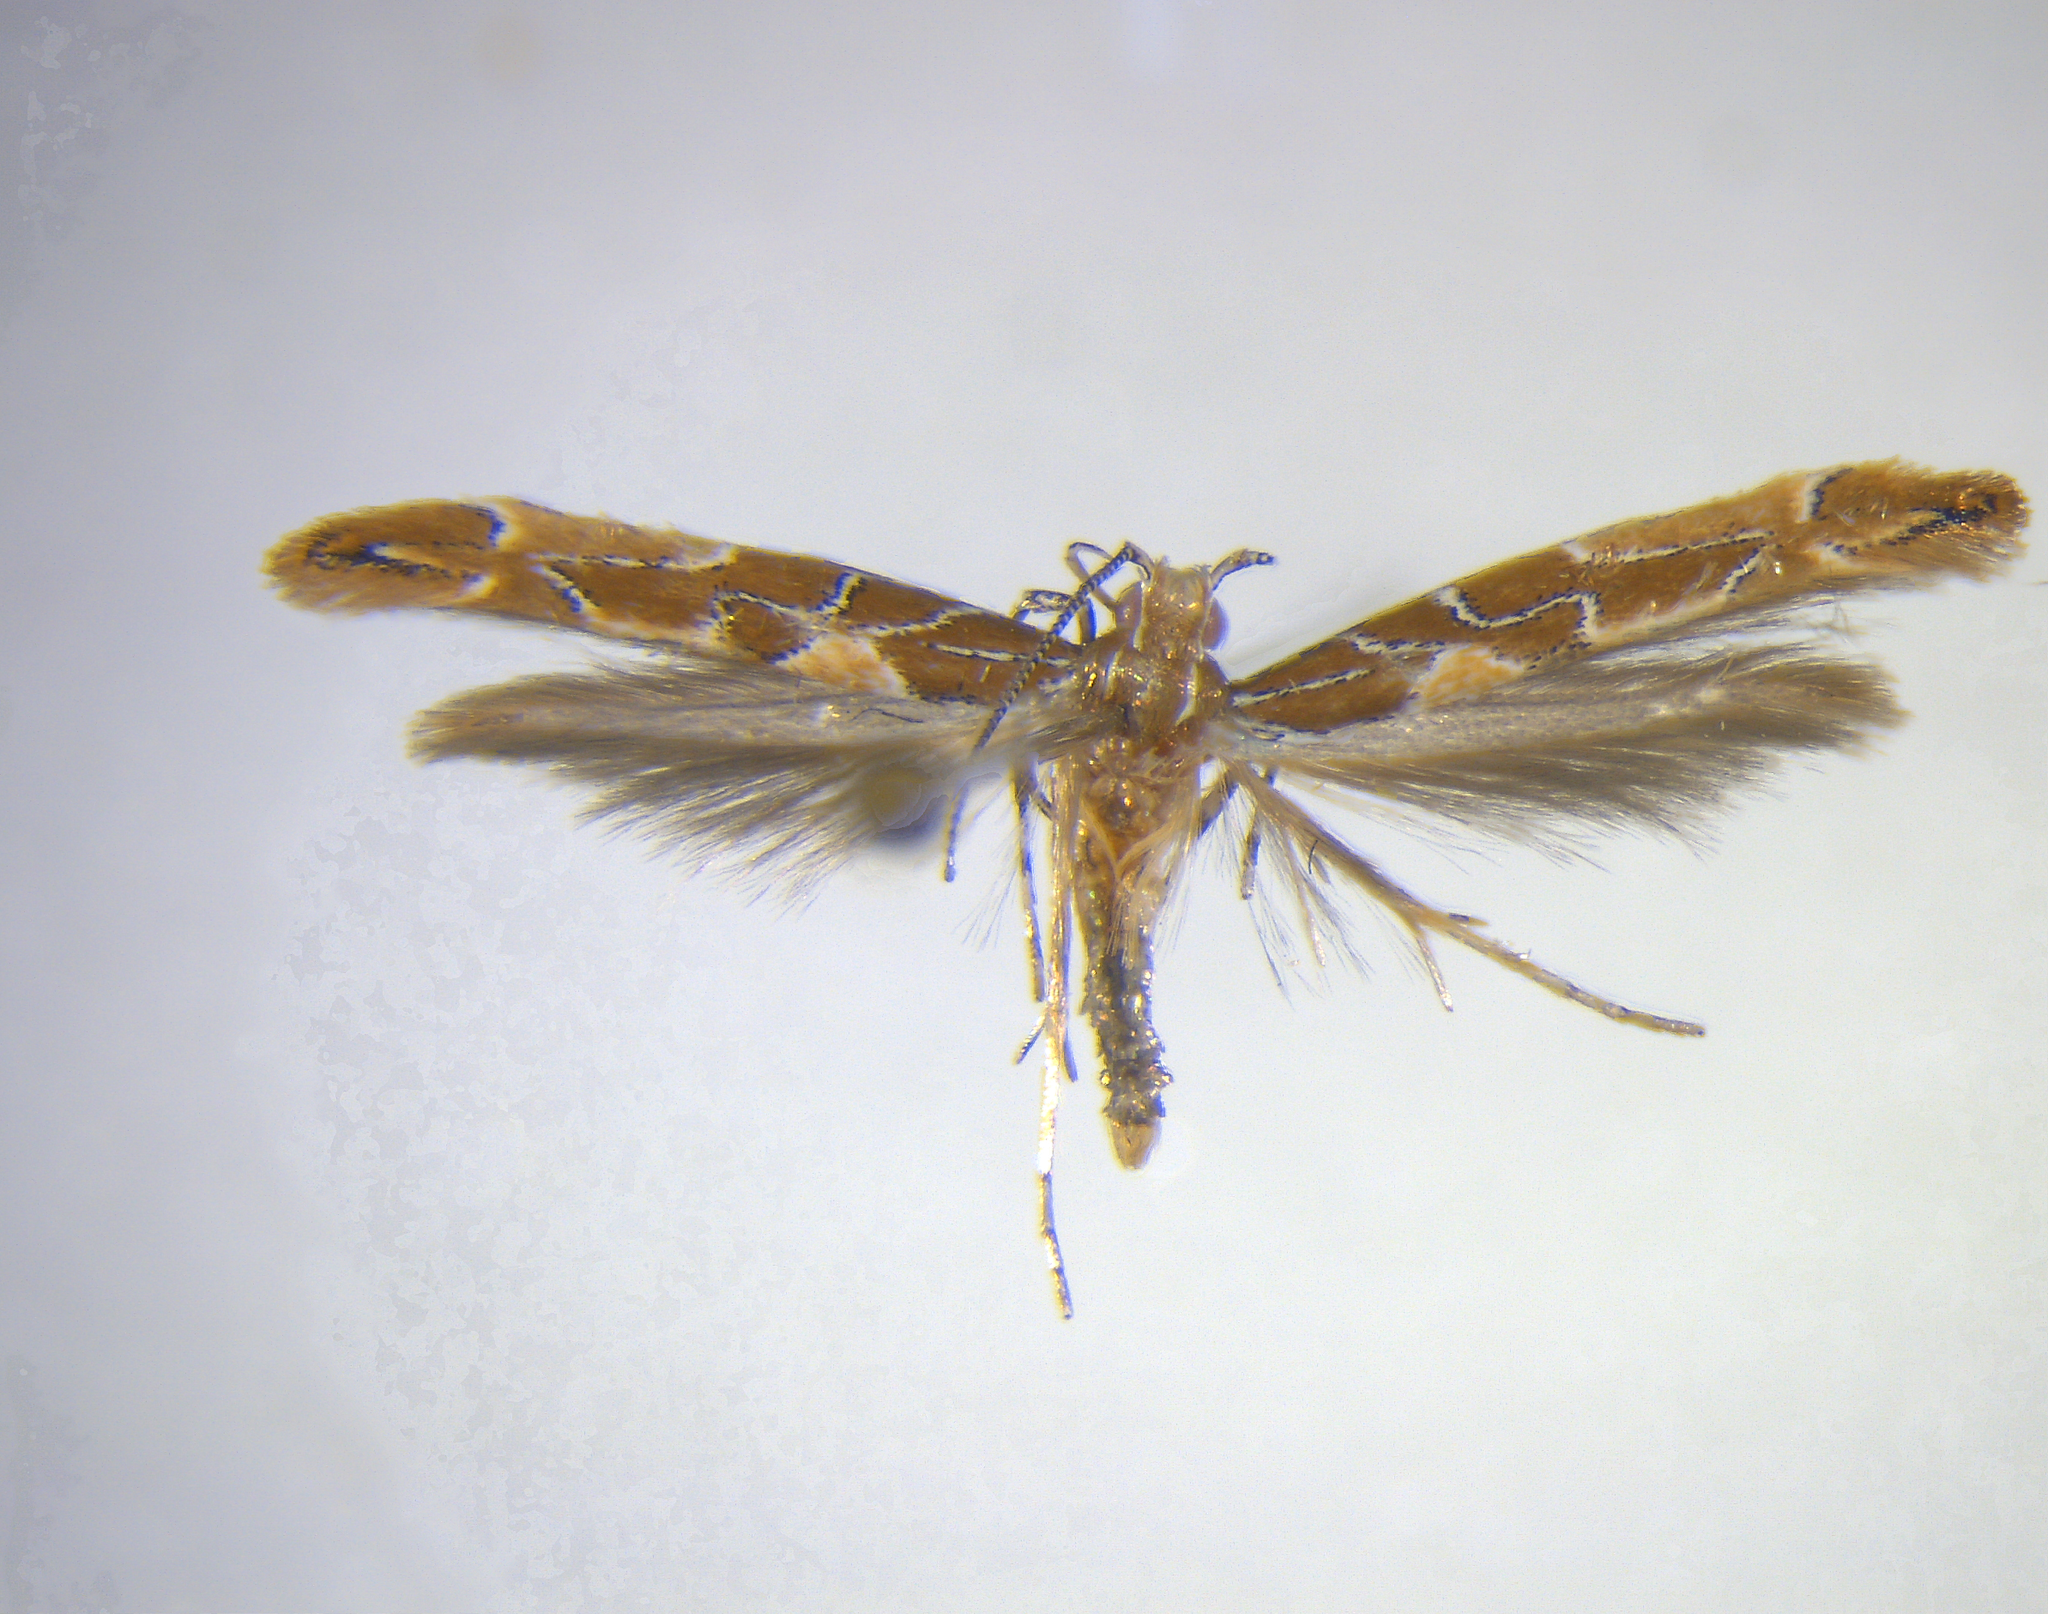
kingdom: Animalia
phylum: Arthropoda
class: Insecta
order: Lepidoptera
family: Cosmopterigidae
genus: Pyroderces
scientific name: Pyroderces apparitella
